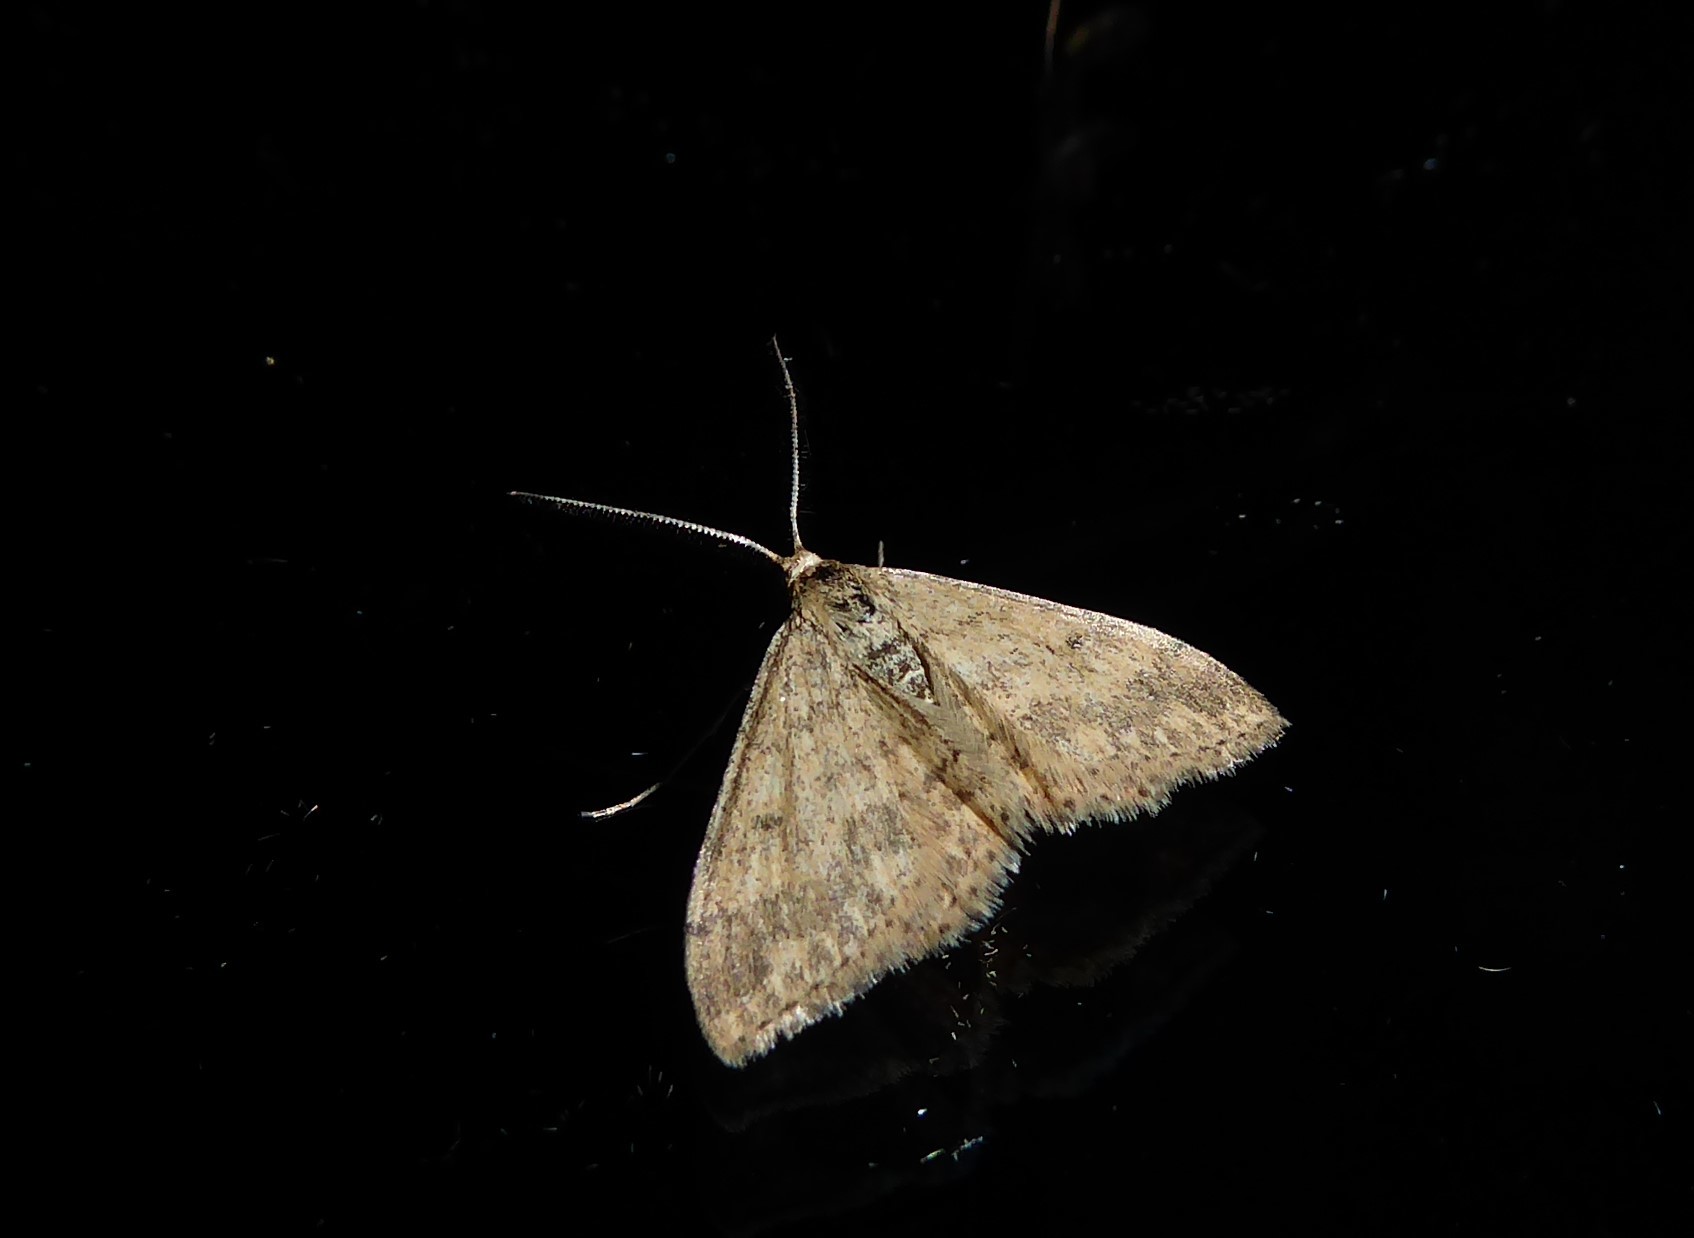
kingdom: Animalia
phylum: Arthropoda
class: Insecta
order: Lepidoptera
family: Geometridae
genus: Scopula
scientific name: Scopula rubraria
